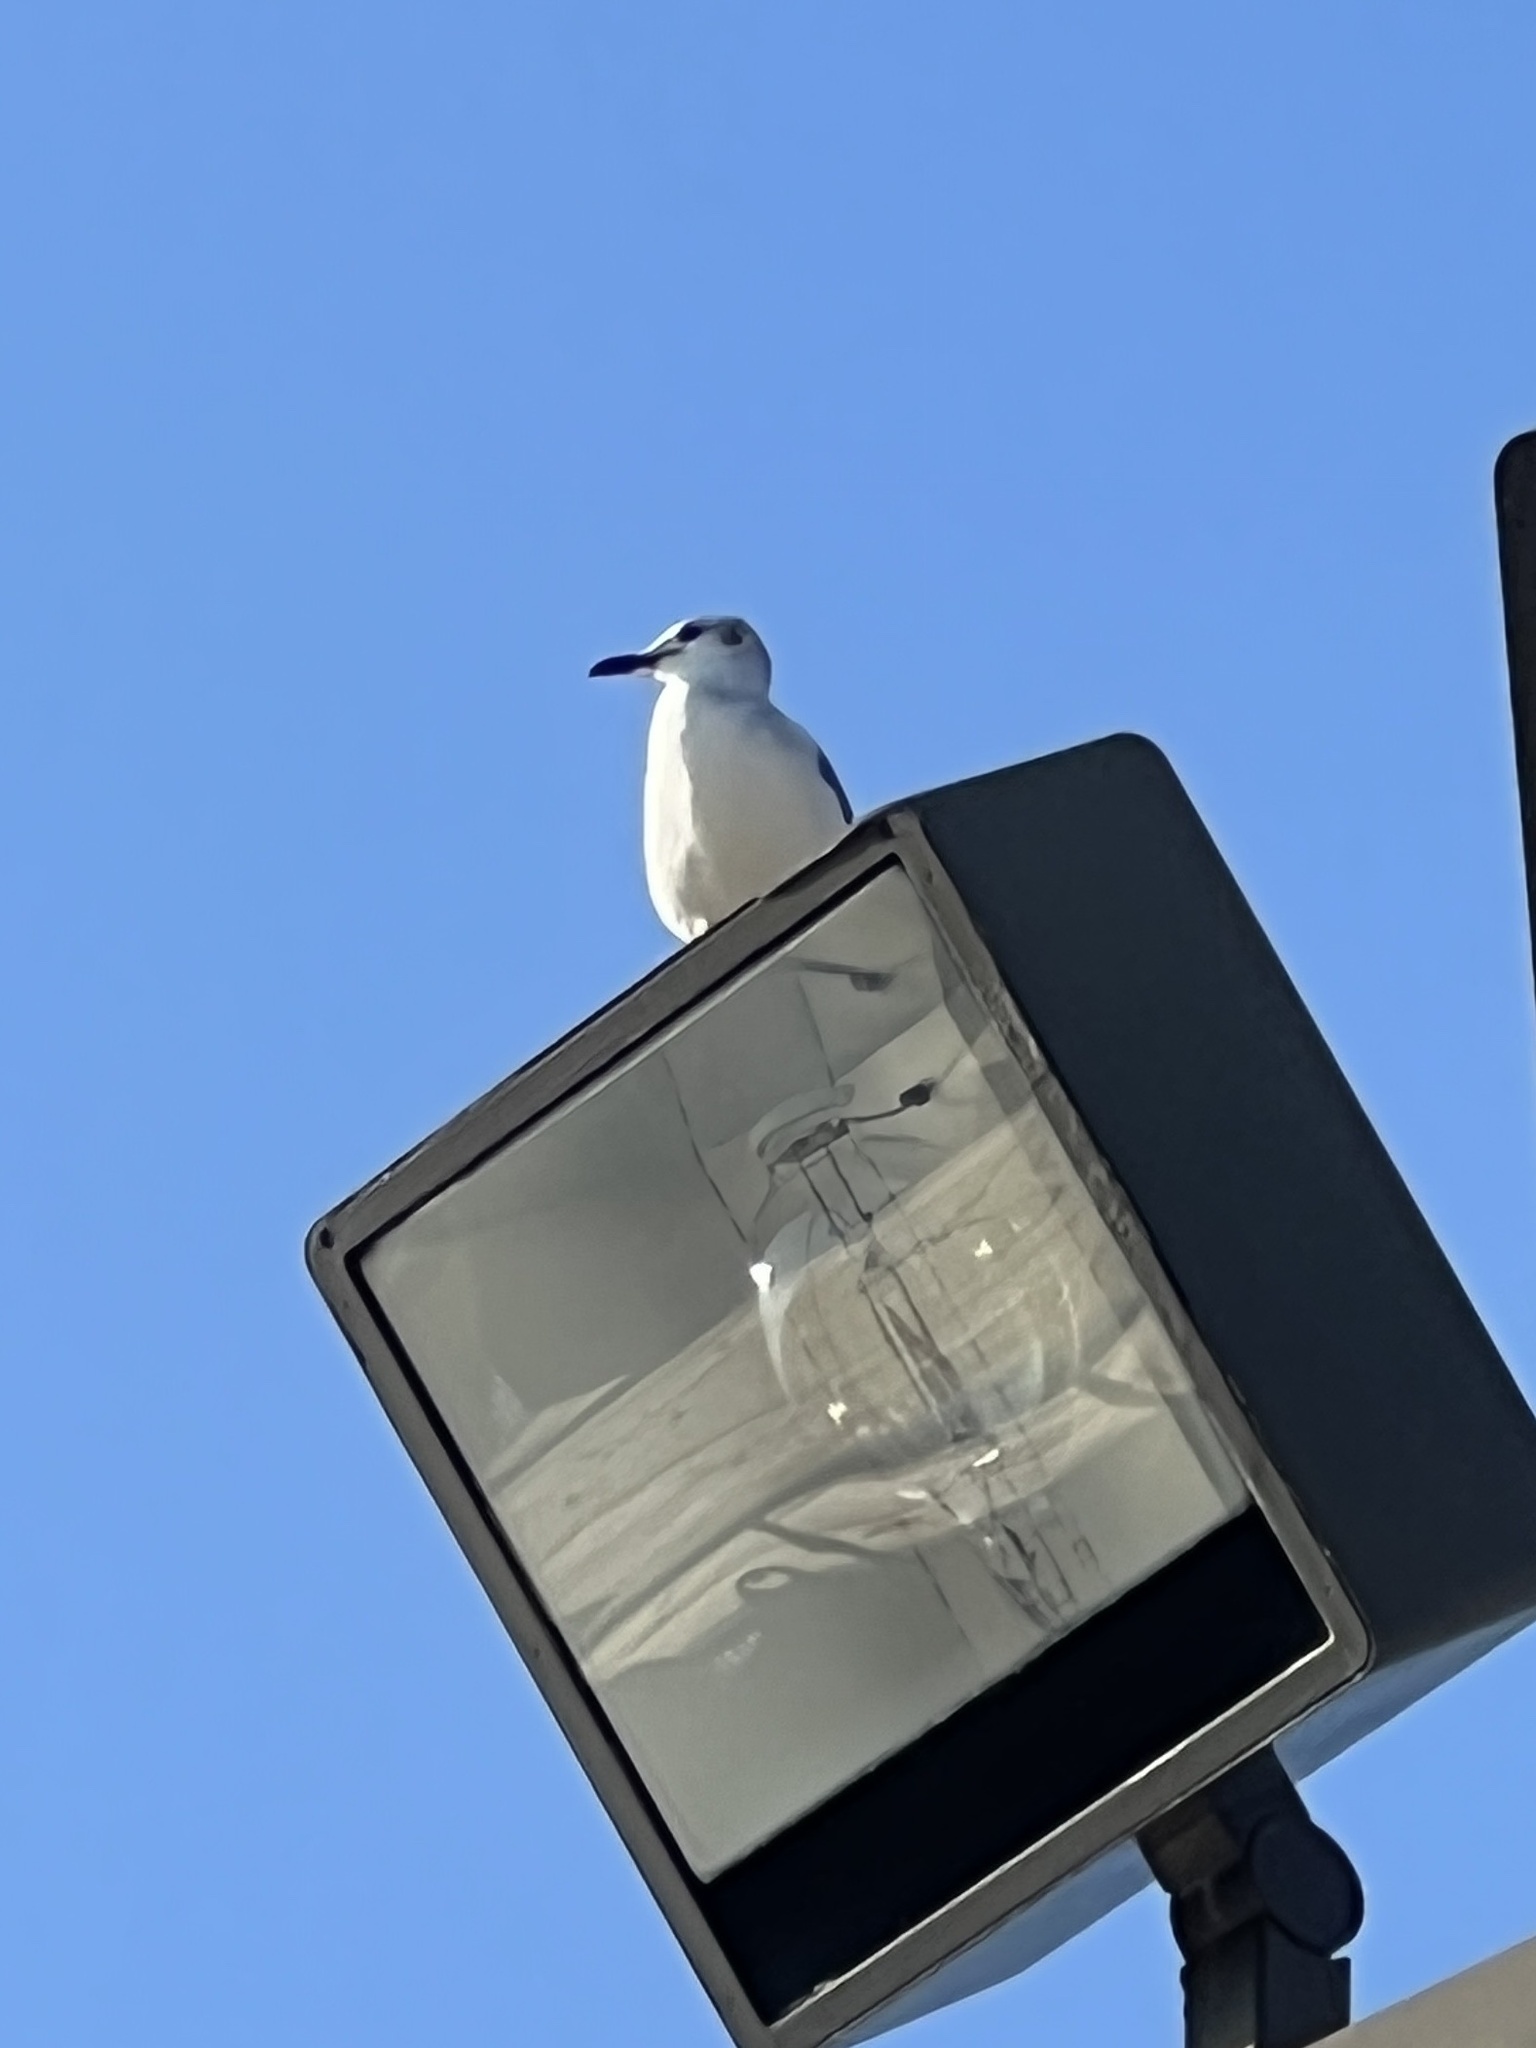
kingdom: Animalia
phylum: Chordata
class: Aves
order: Charadriiformes
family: Laridae
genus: Leucophaeus
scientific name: Leucophaeus atricilla
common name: Laughing gull
